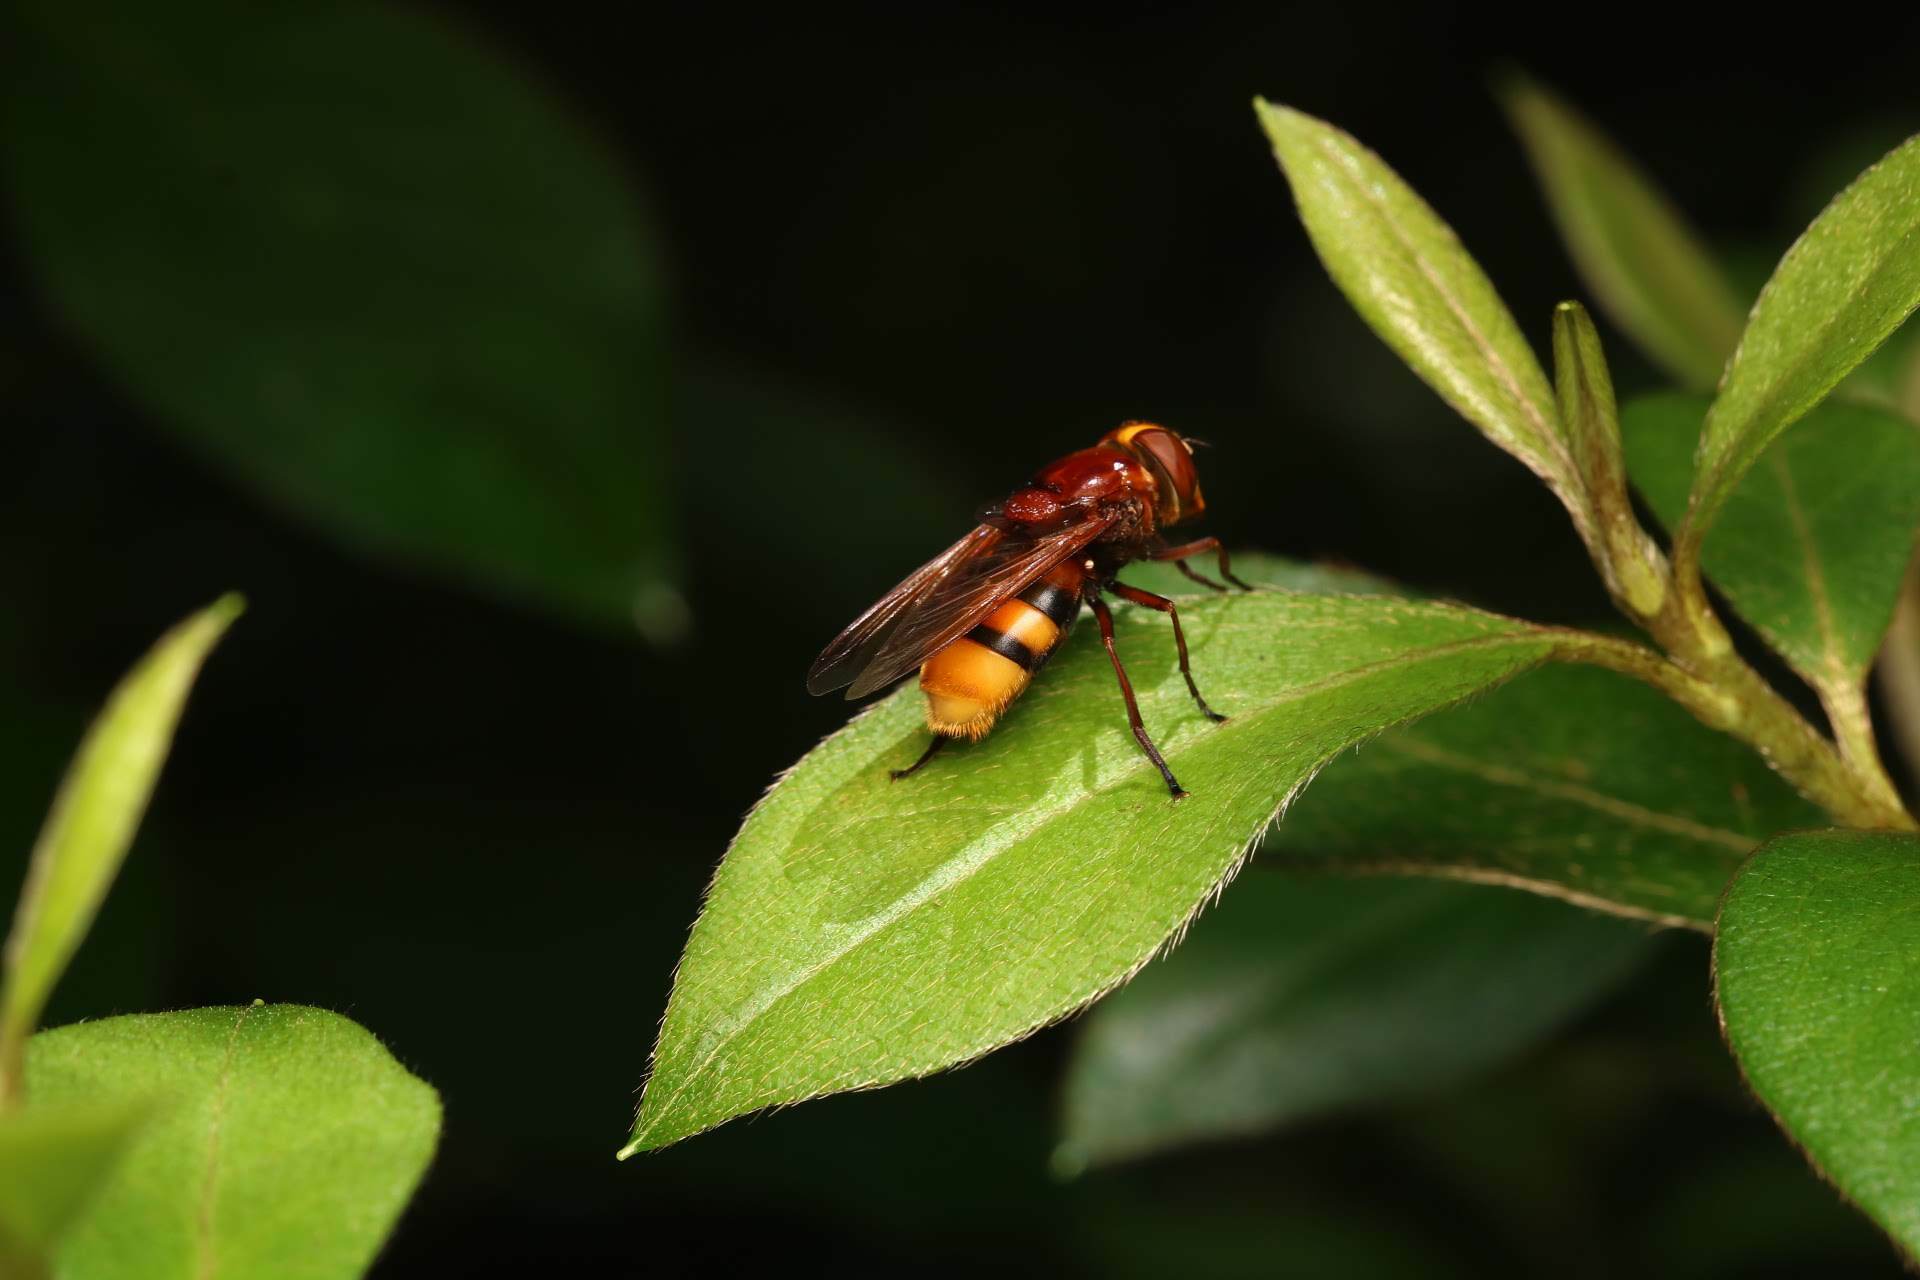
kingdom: Animalia
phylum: Arthropoda
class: Insecta
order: Diptera
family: Syrphidae
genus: Volucella
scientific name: Volucella zonaria
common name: Hornet hoverfly
